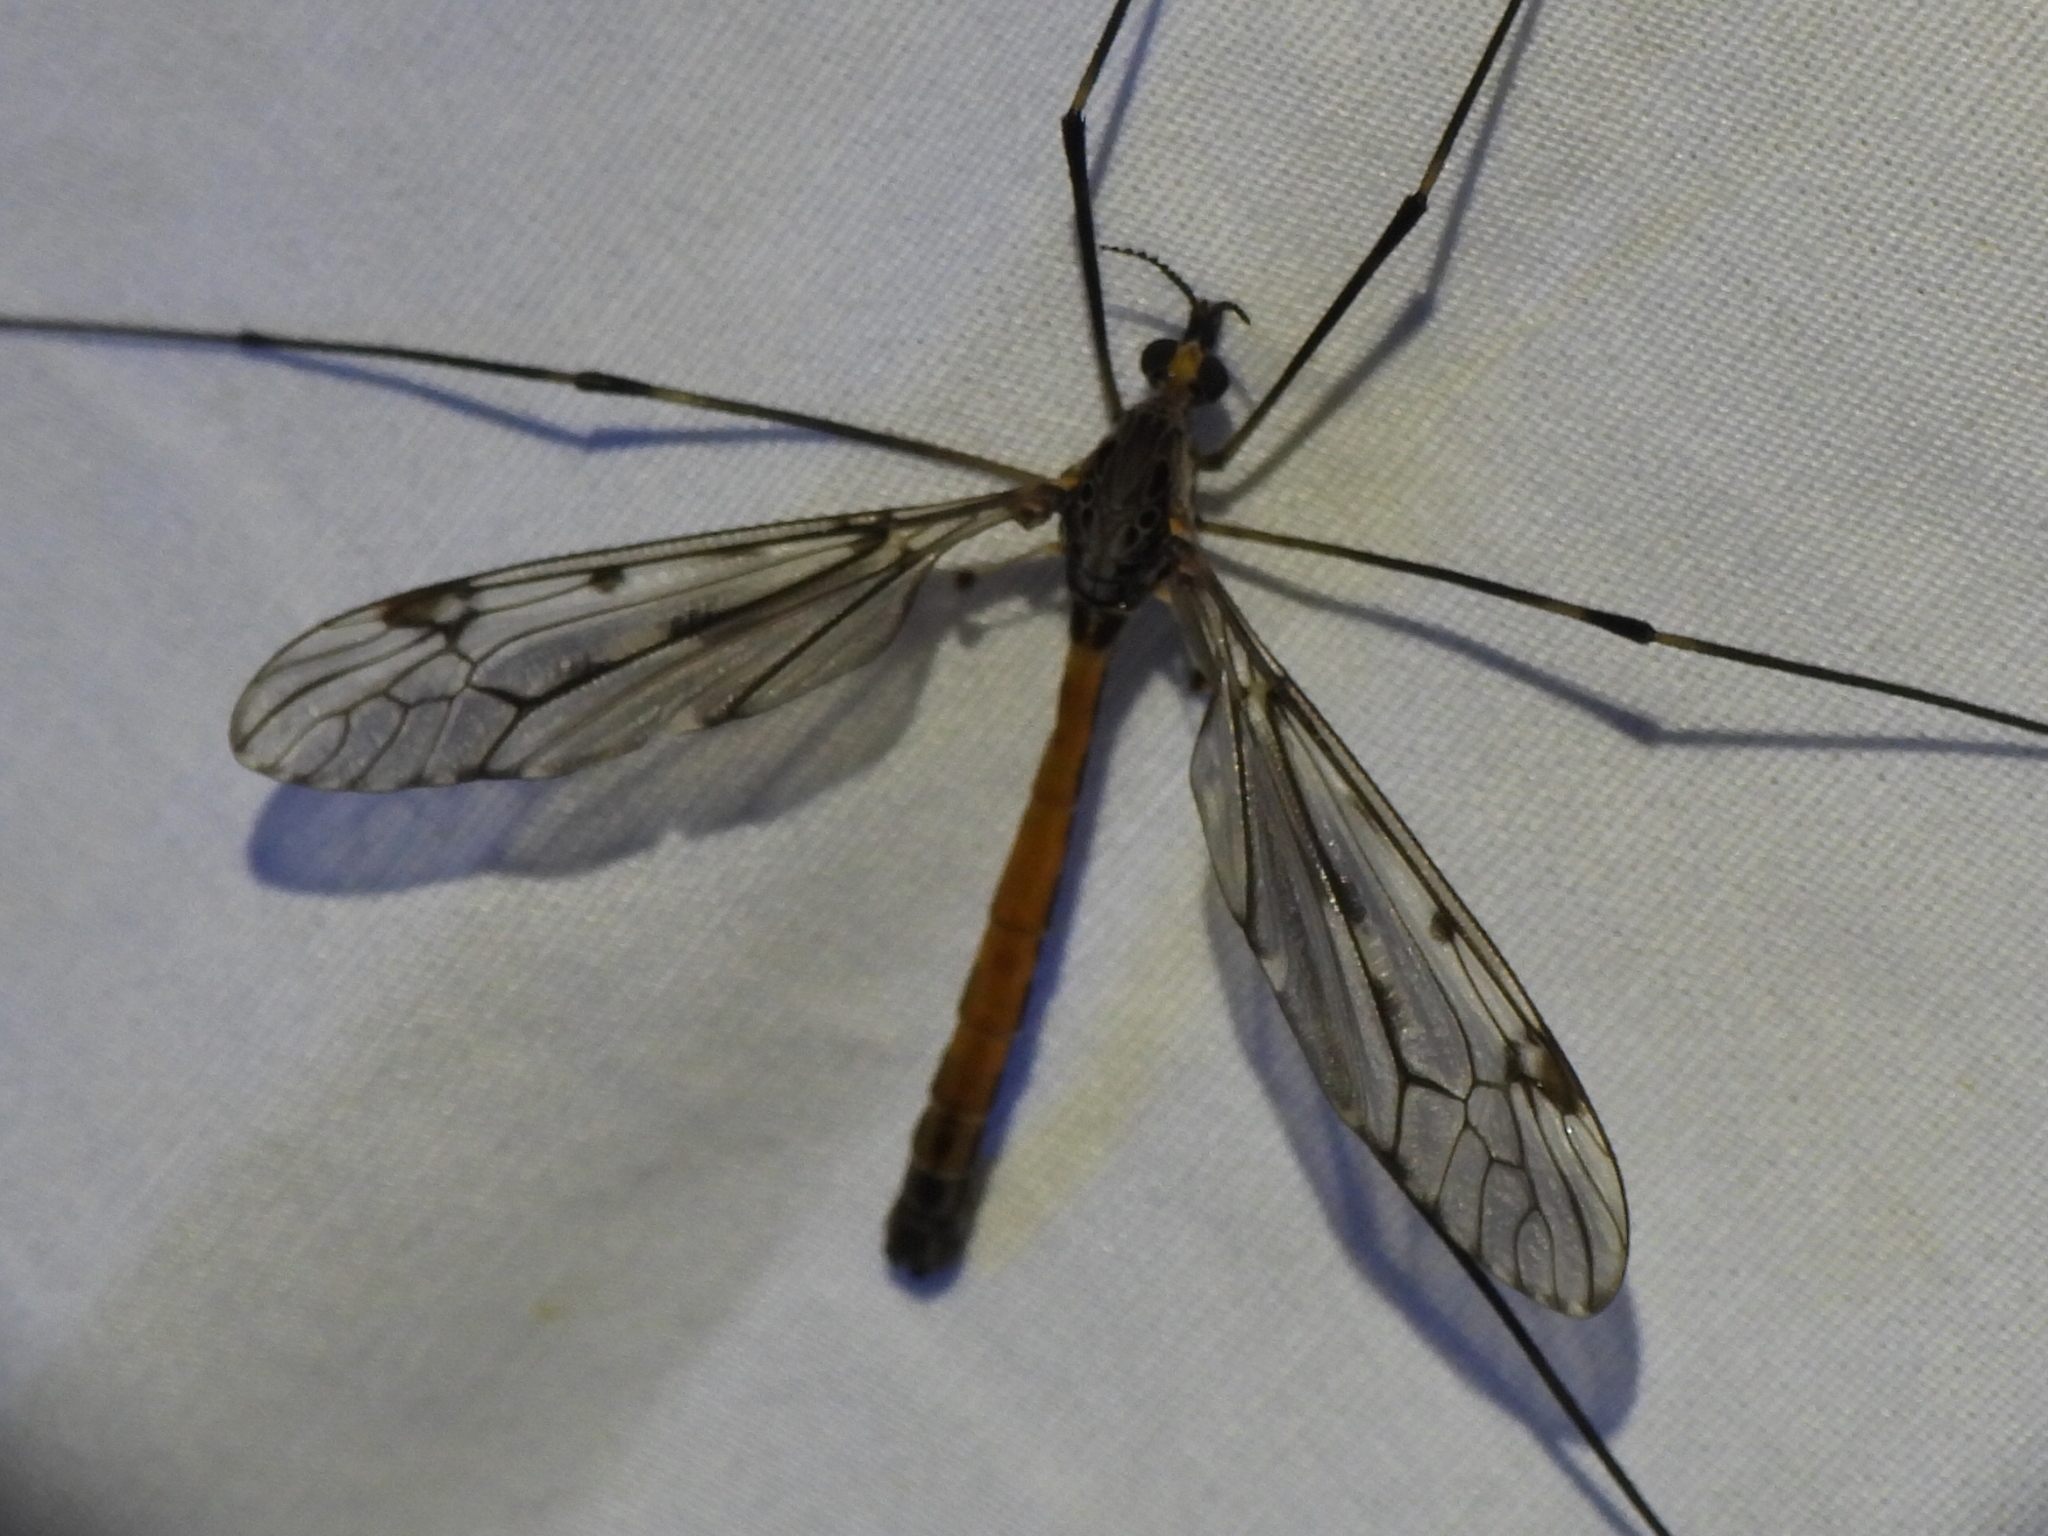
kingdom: Animalia
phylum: Arthropoda
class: Insecta
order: Diptera
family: Tipulidae
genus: Tipula
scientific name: Tipula abdominalis
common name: Giant crane fly
